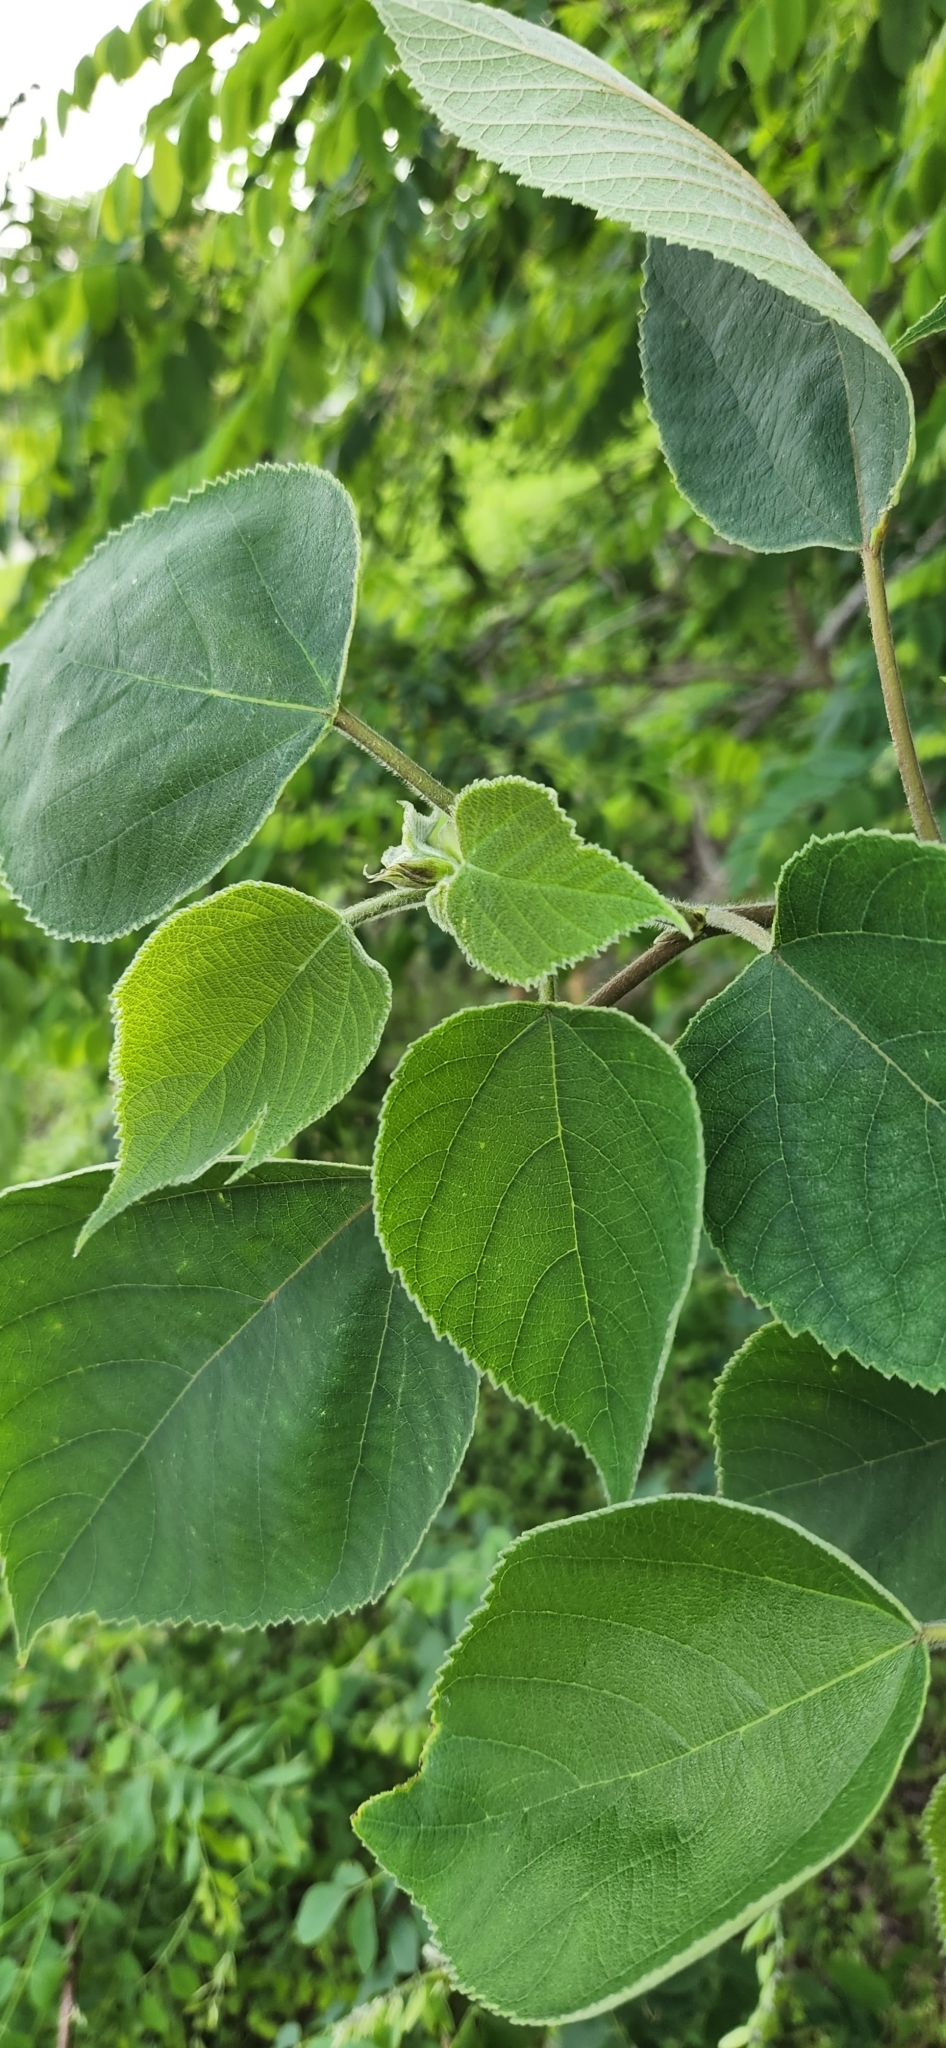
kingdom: Plantae
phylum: Tracheophyta
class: Magnoliopsida
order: Rosales
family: Moraceae
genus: Broussonetia
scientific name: Broussonetia papyrifera
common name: Paper mulberry
